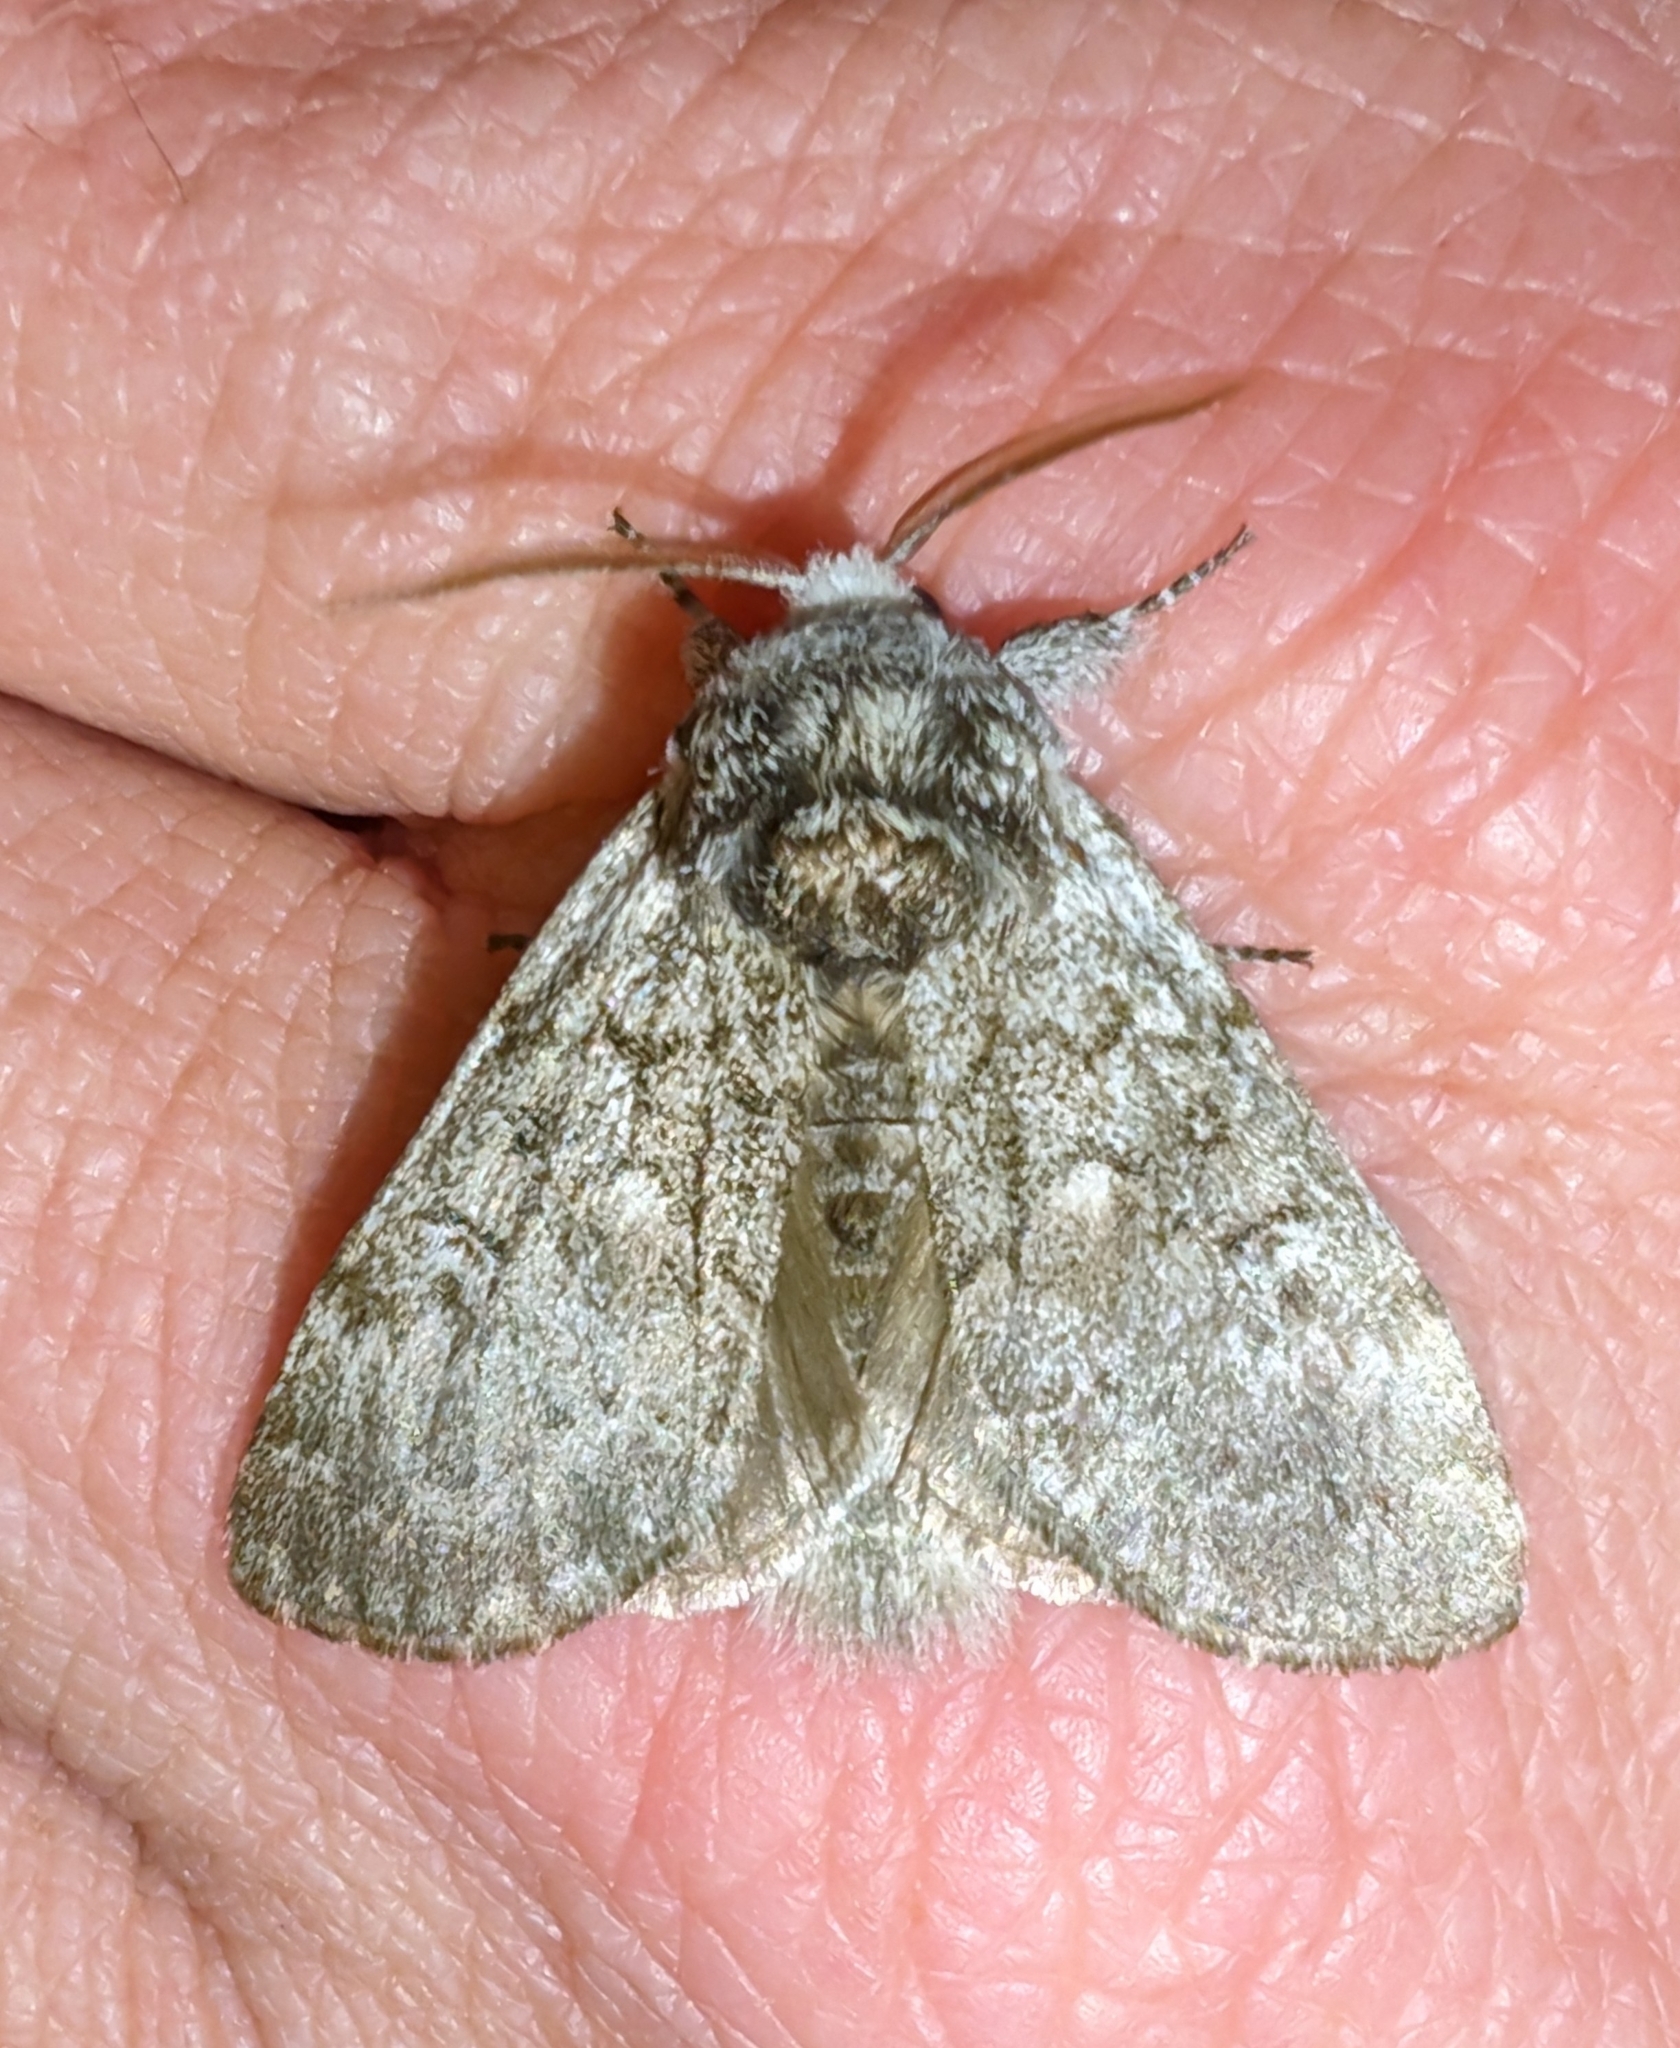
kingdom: Animalia
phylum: Arthropoda
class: Insecta
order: Lepidoptera
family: Noctuidae
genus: Colocasia
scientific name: Colocasia propinquilinea
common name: Close-banded demas
